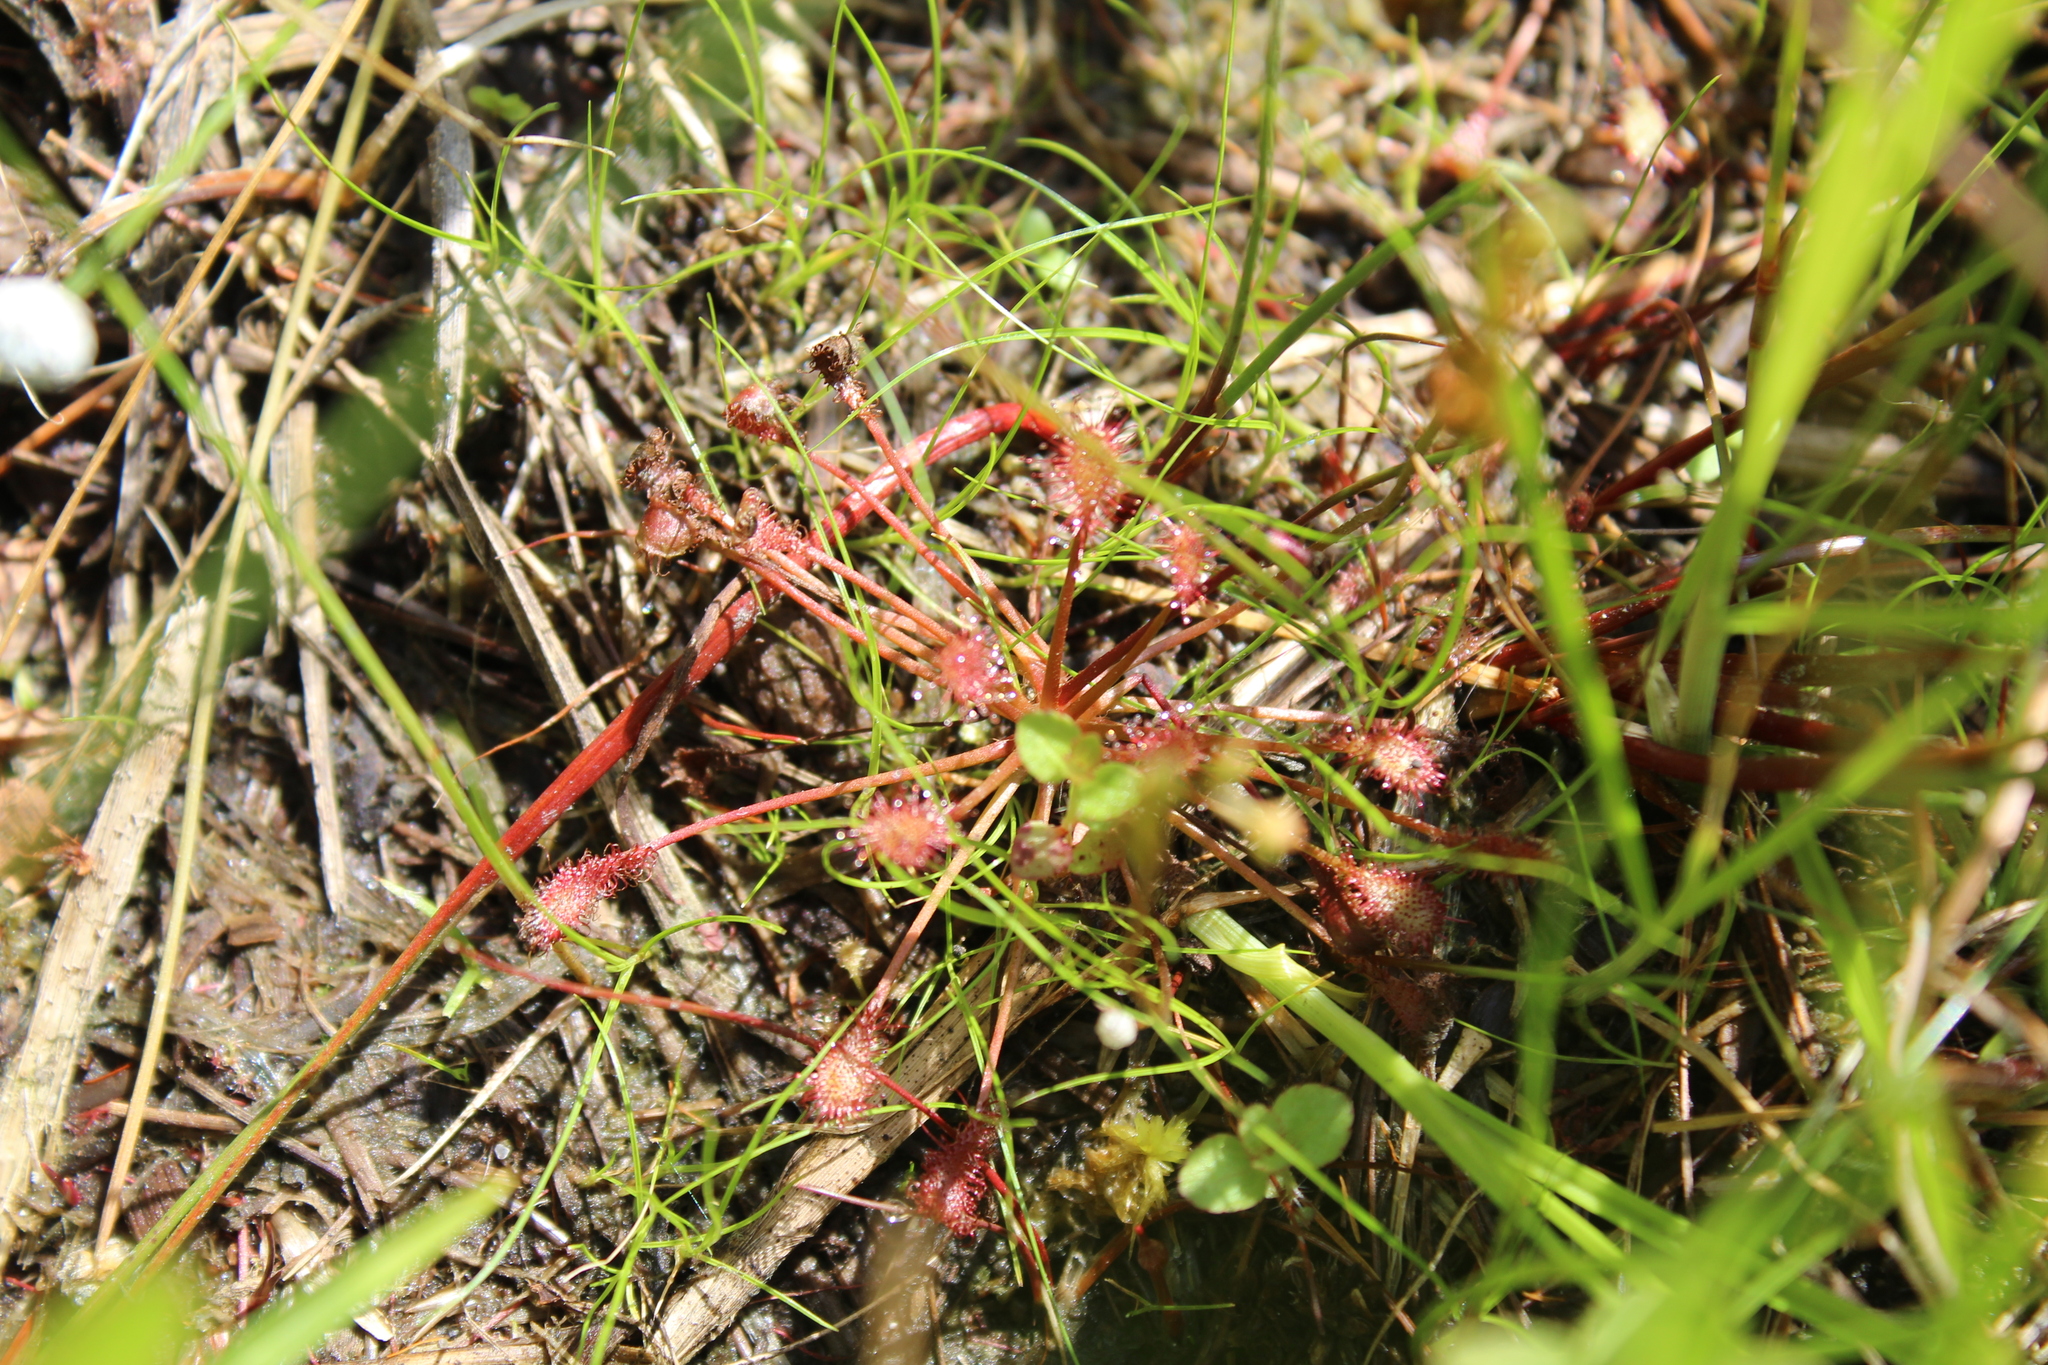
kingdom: Plantae
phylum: Tracheophyta
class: Magnoliopsida
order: Caryophyllales
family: Droseraceae
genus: Drosera
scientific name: Drosera intermedia
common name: Oblong-leaved sundew
